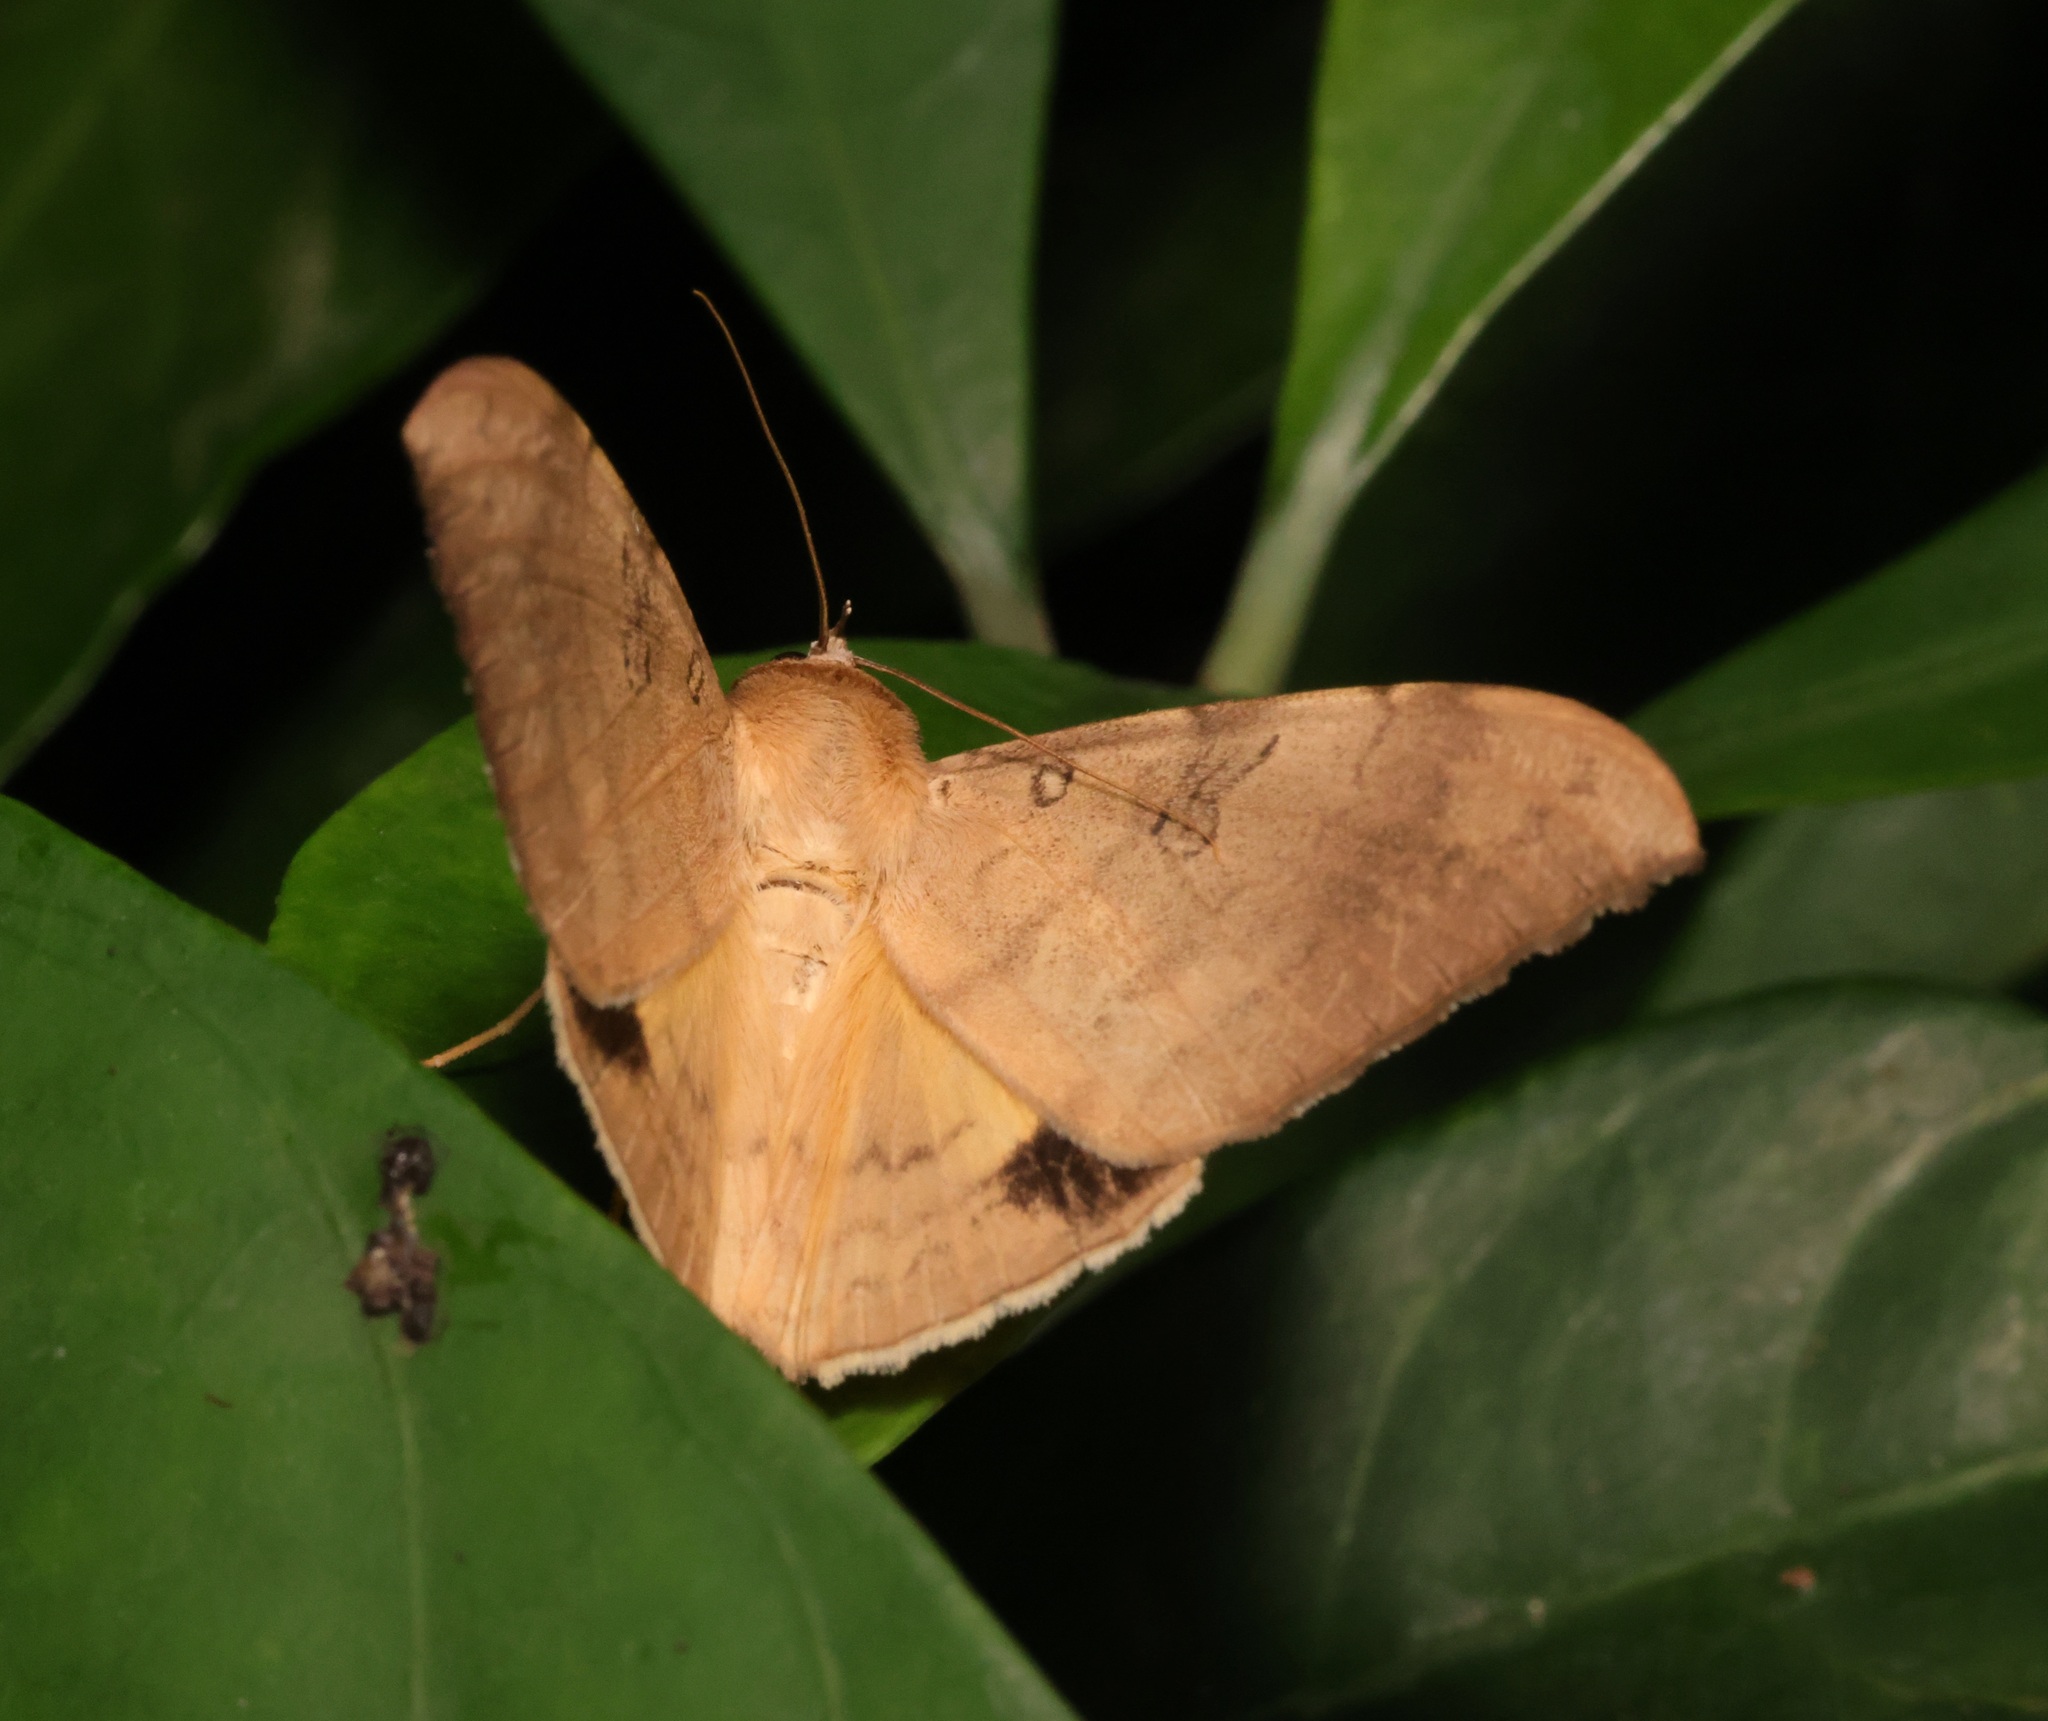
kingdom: Animalia
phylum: Arthropoda
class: Insecta
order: Lepidoptera
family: Erebidae
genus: Oxyodes
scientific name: Oxyodes scrobiculata
